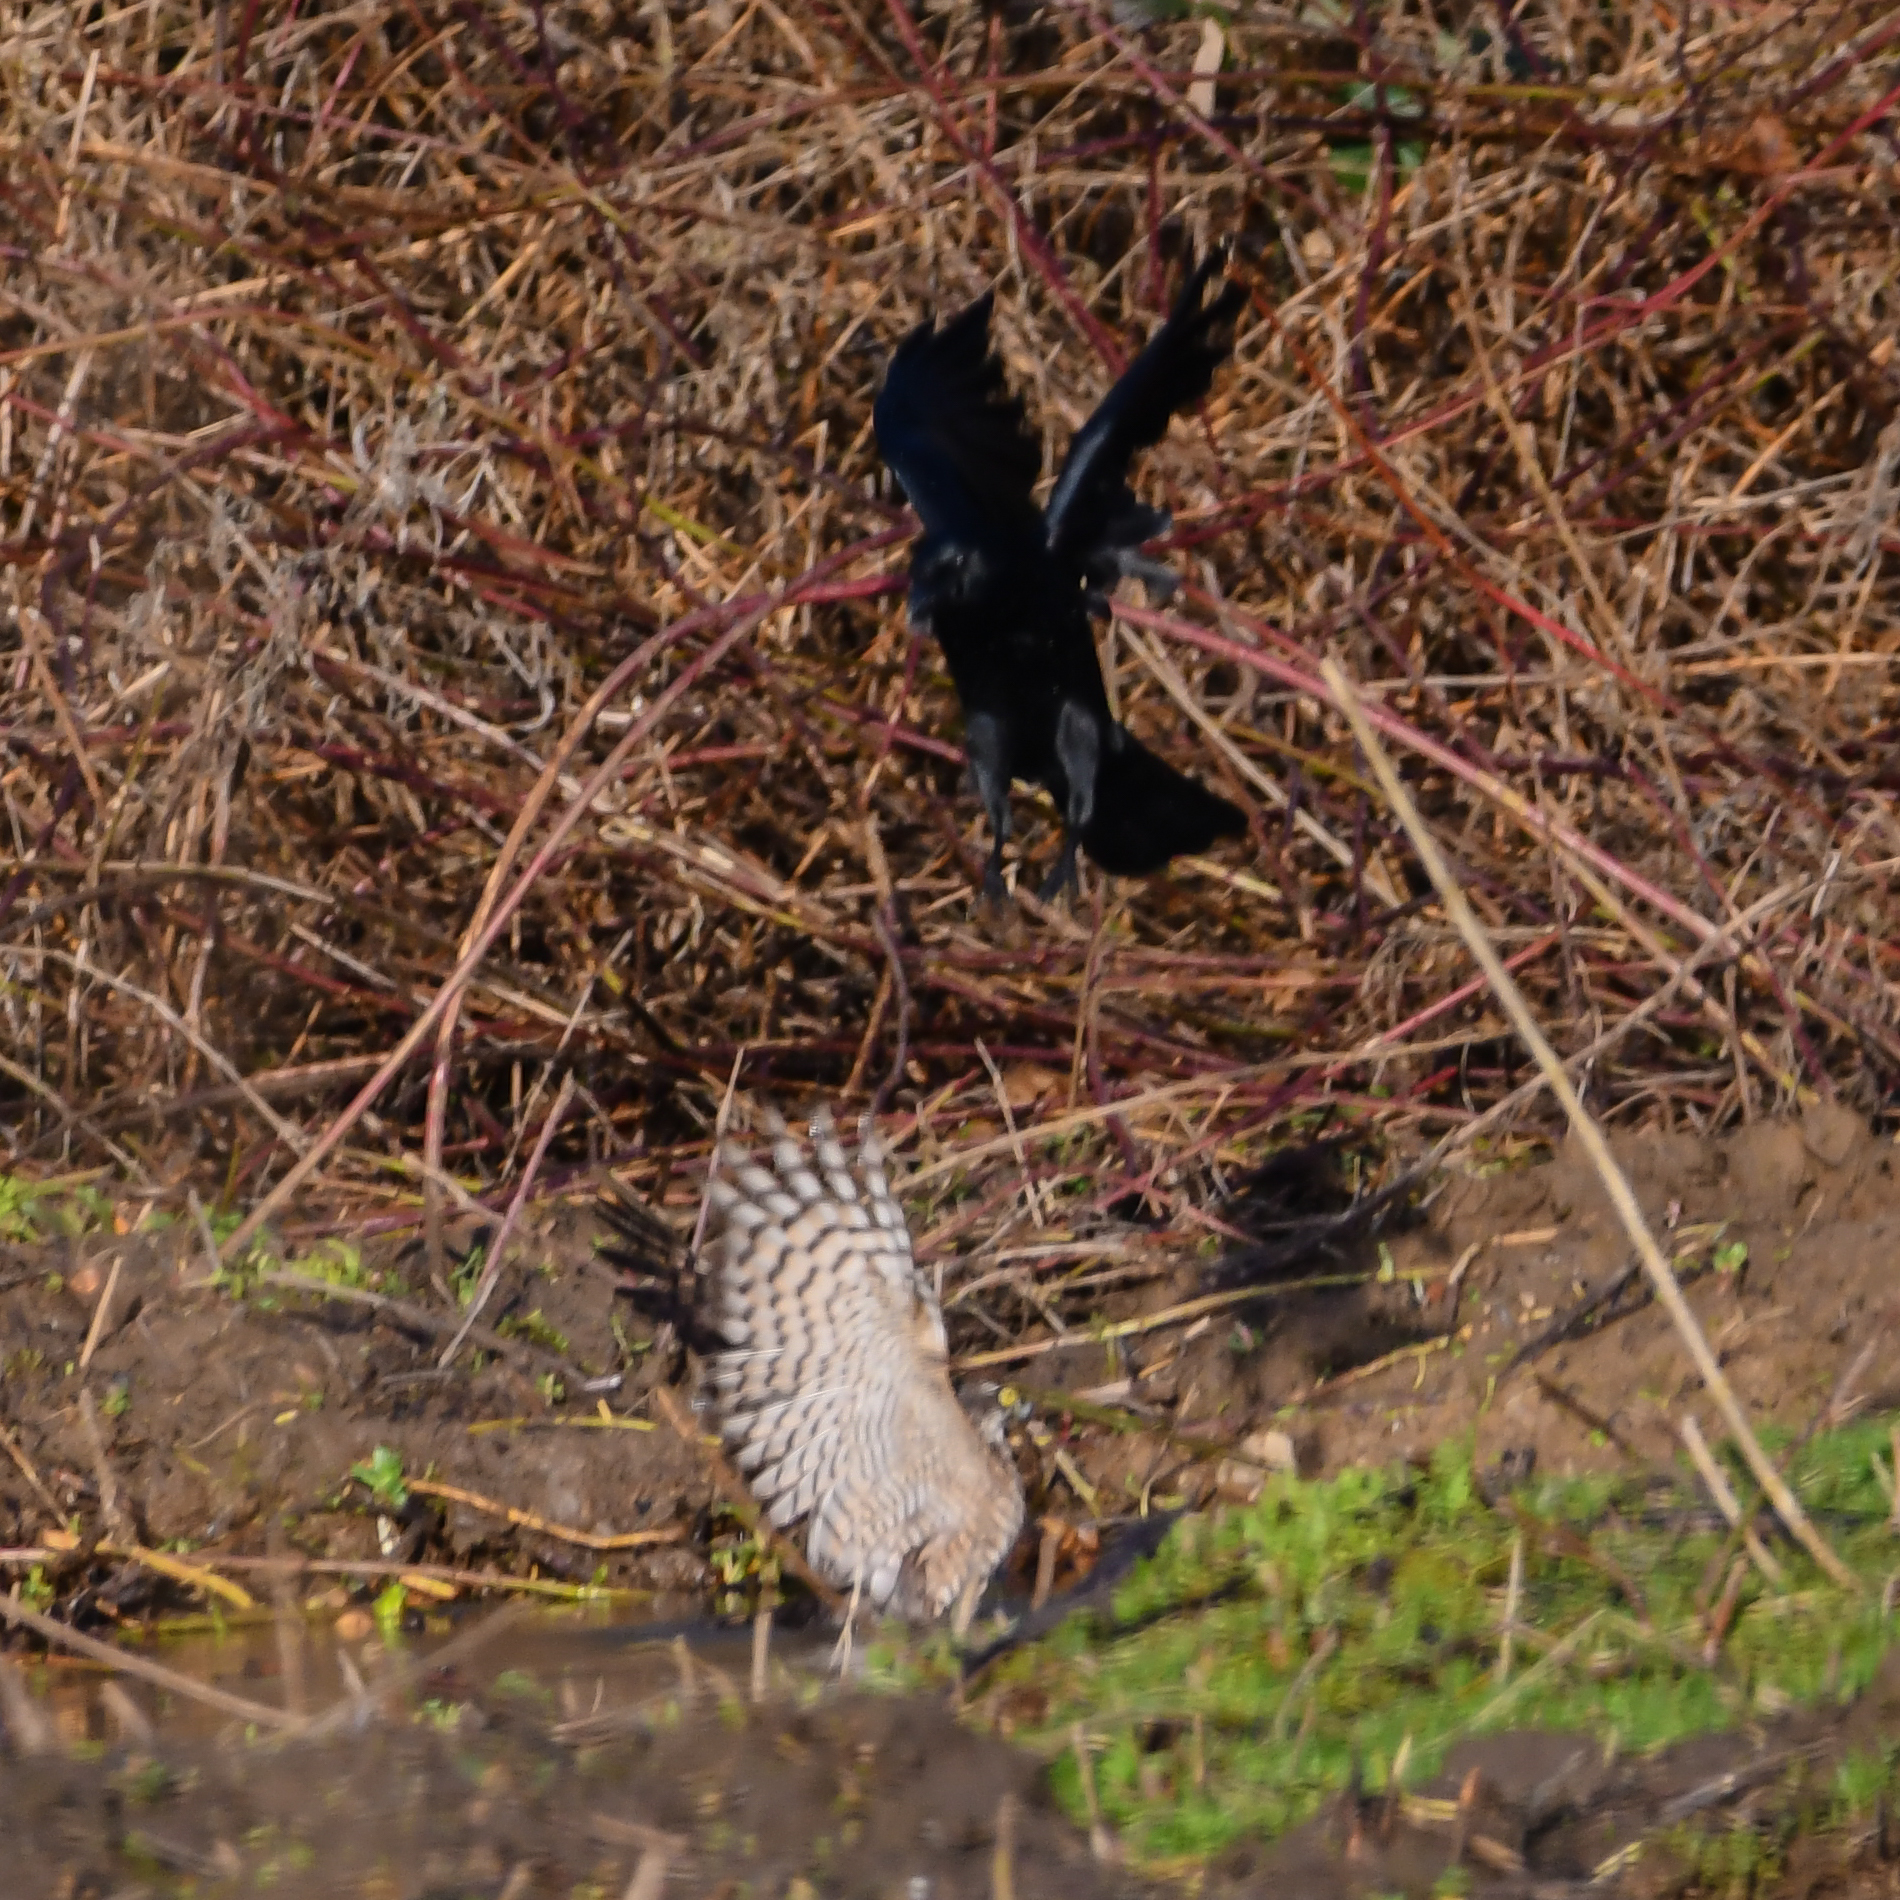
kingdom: Animalia
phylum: Chordata
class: Aves
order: Accipitriformes
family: Accipitridae
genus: Accipiter
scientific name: Accipiter nisus
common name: Eurasian sparrowhawk
